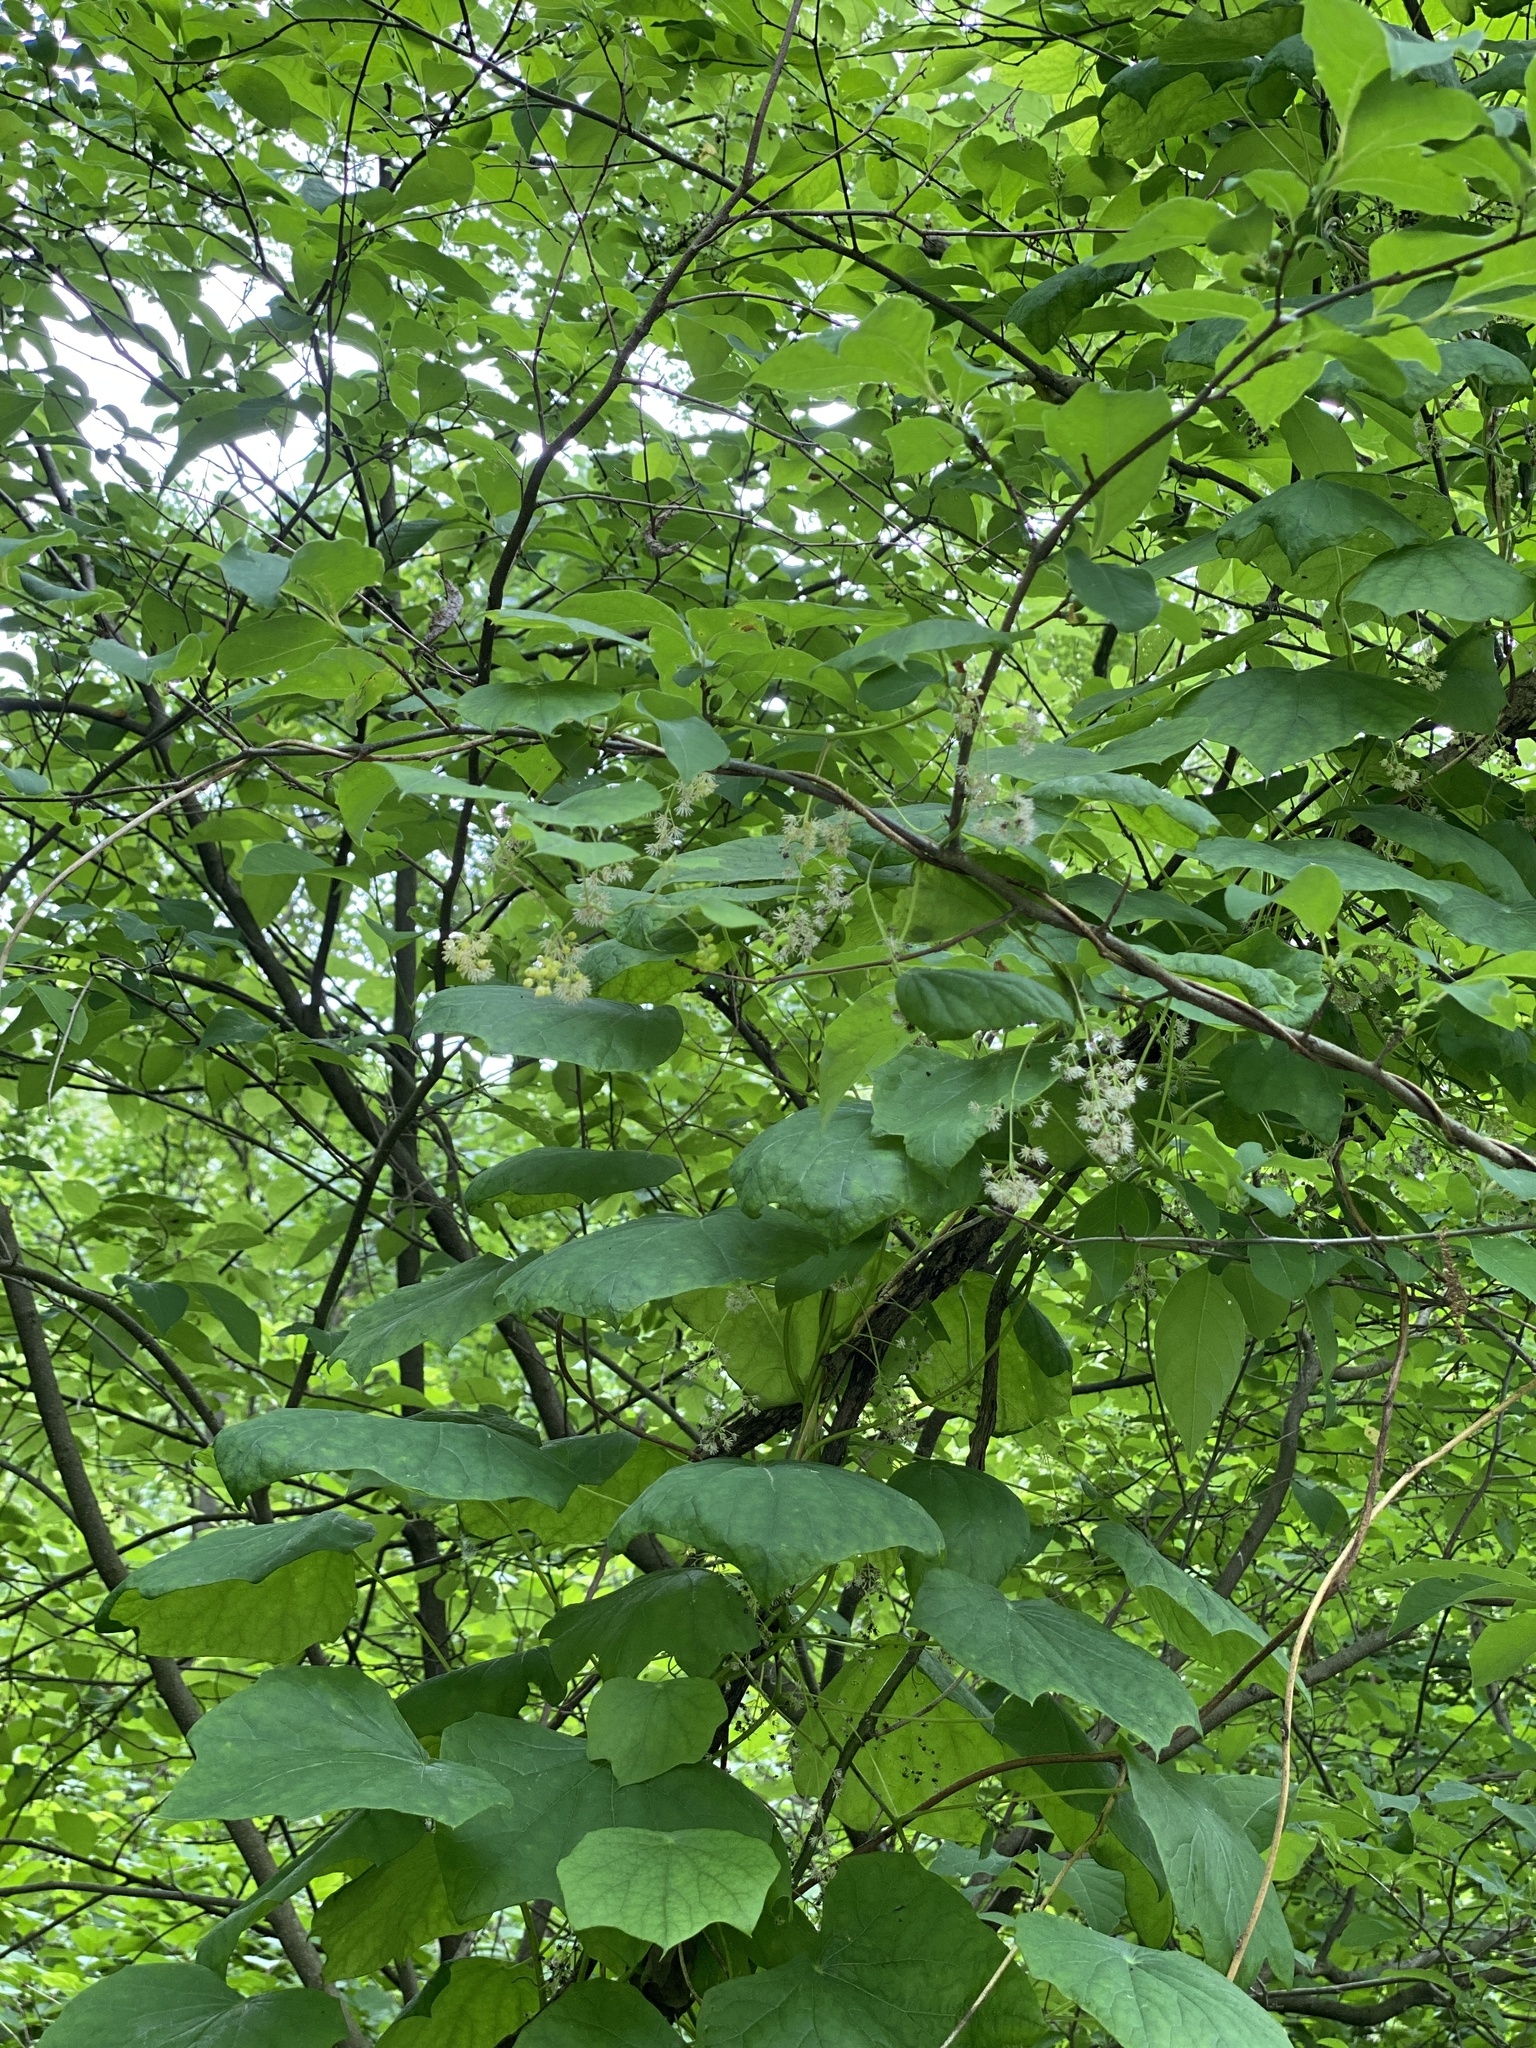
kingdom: Plantae
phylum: Tracheophyta
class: Magnoliopsida
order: Ranunculales
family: Menispermaceae
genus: Menispermum
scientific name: Menispermum canadense
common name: Moonseed
